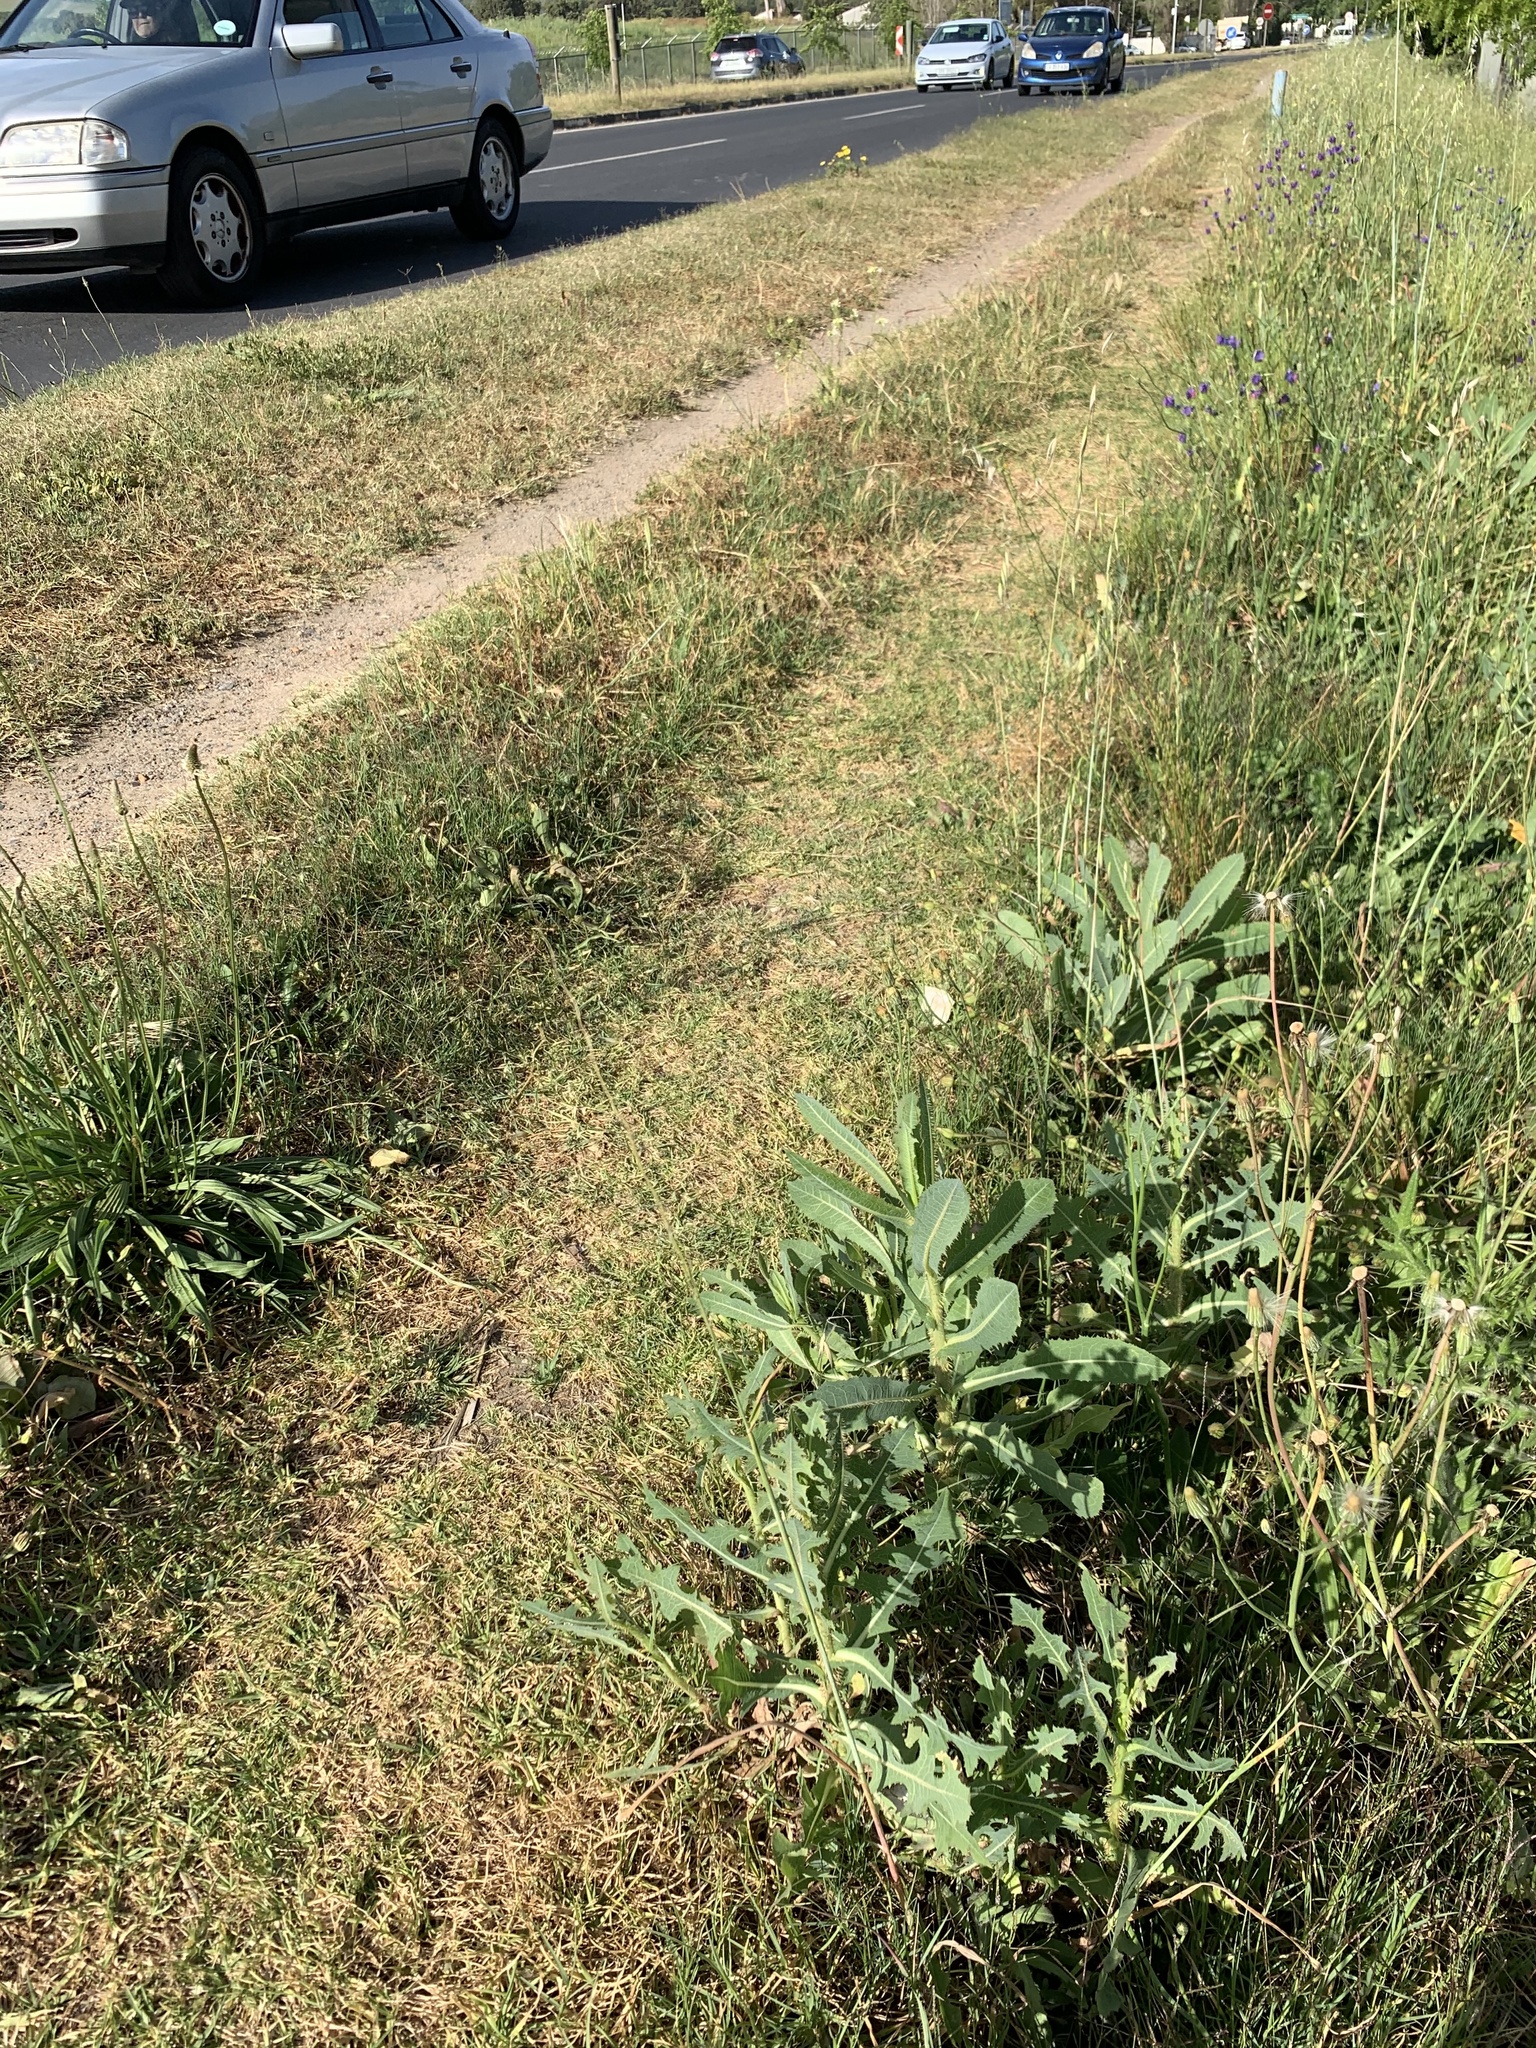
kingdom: Plantae
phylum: Tracheophyta
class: Magnoliopsida
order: Asterales
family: Asteraceae
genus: Lactuca
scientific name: Lactuca serriola
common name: Prickly lettuce
